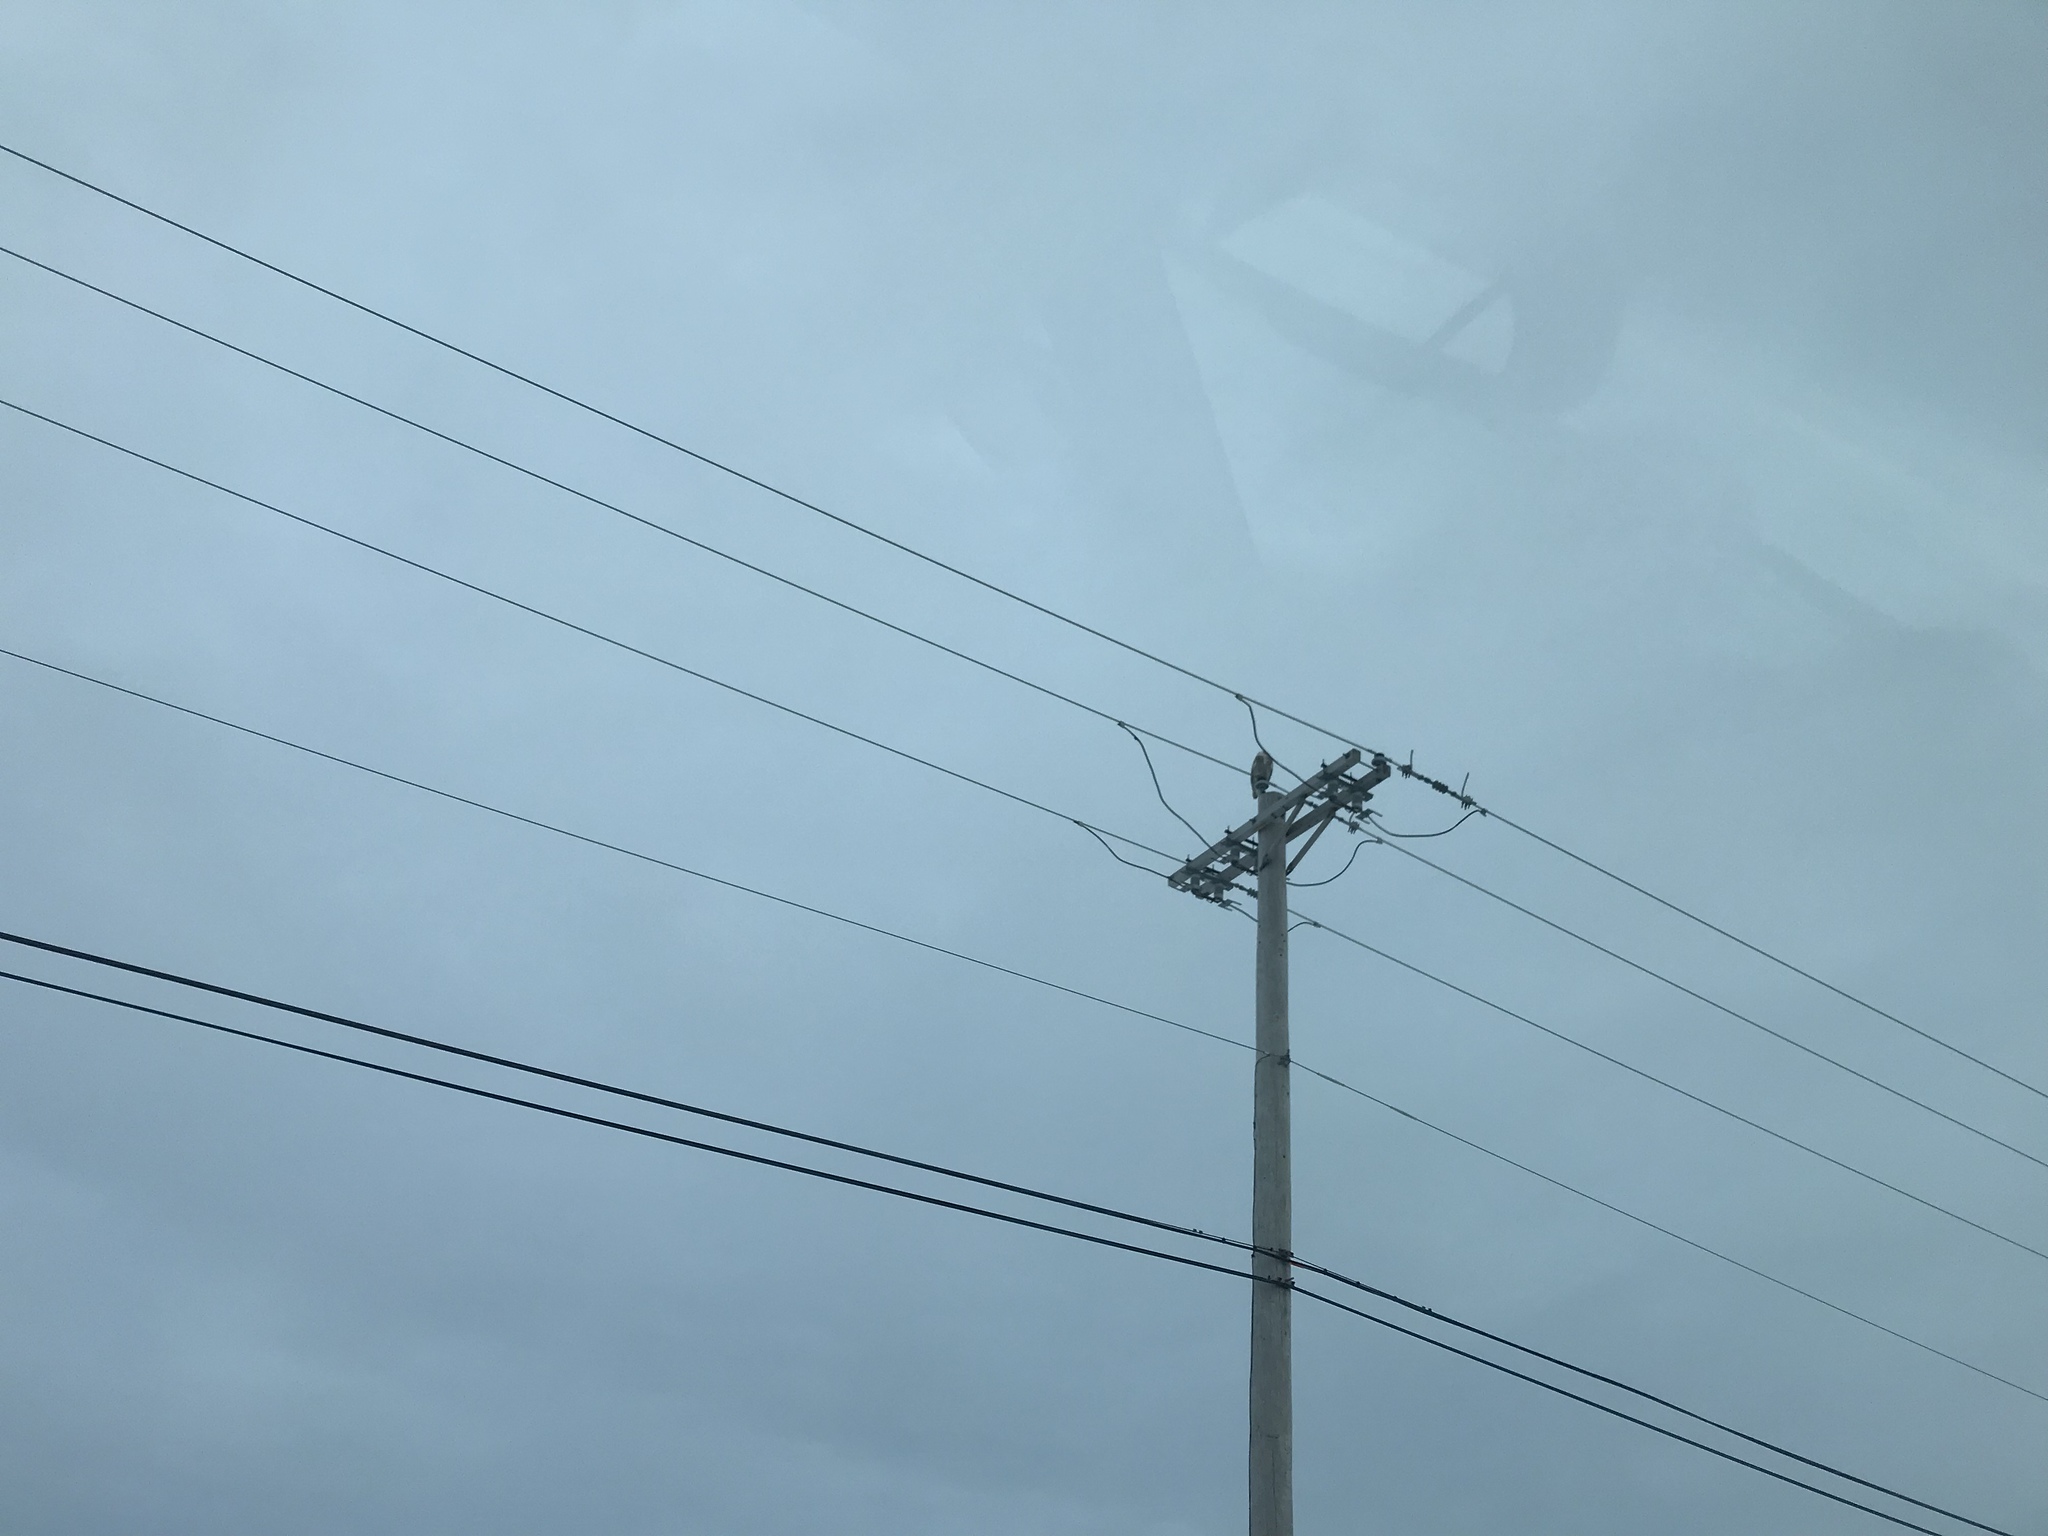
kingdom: Animalia
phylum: Chordata
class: Aves
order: Strigiformes
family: Strigidae
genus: Bubo
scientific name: Bubo scandiacus
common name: Snowy owl
